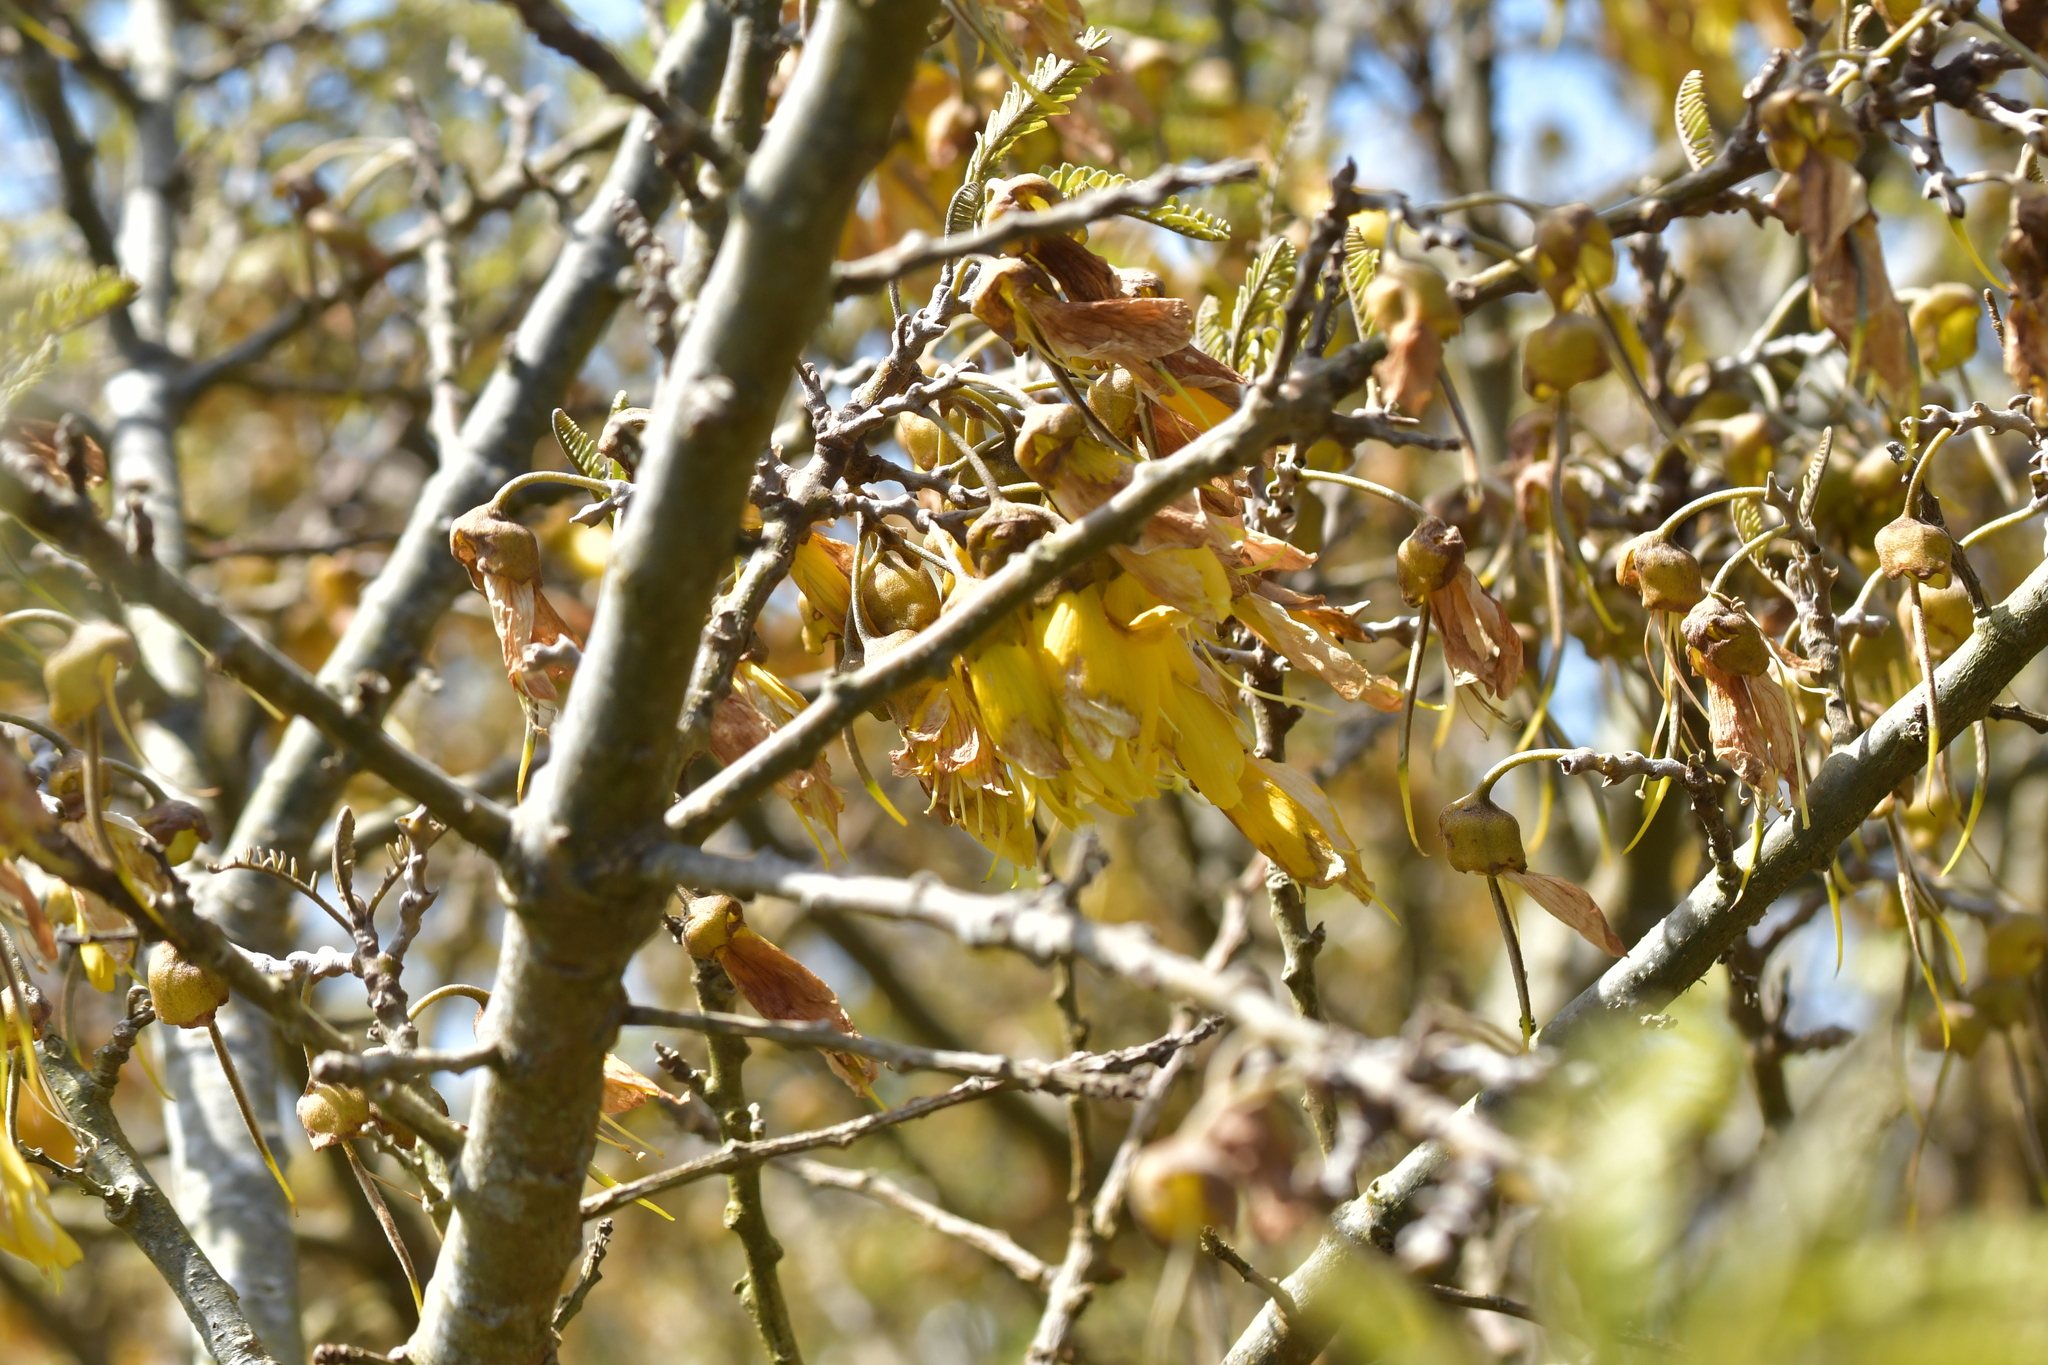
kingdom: Plantae
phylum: Tracheophyta
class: Magnoliopsida
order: Fabales
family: Fabaceae
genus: Sophora
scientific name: Sophora chathamica
